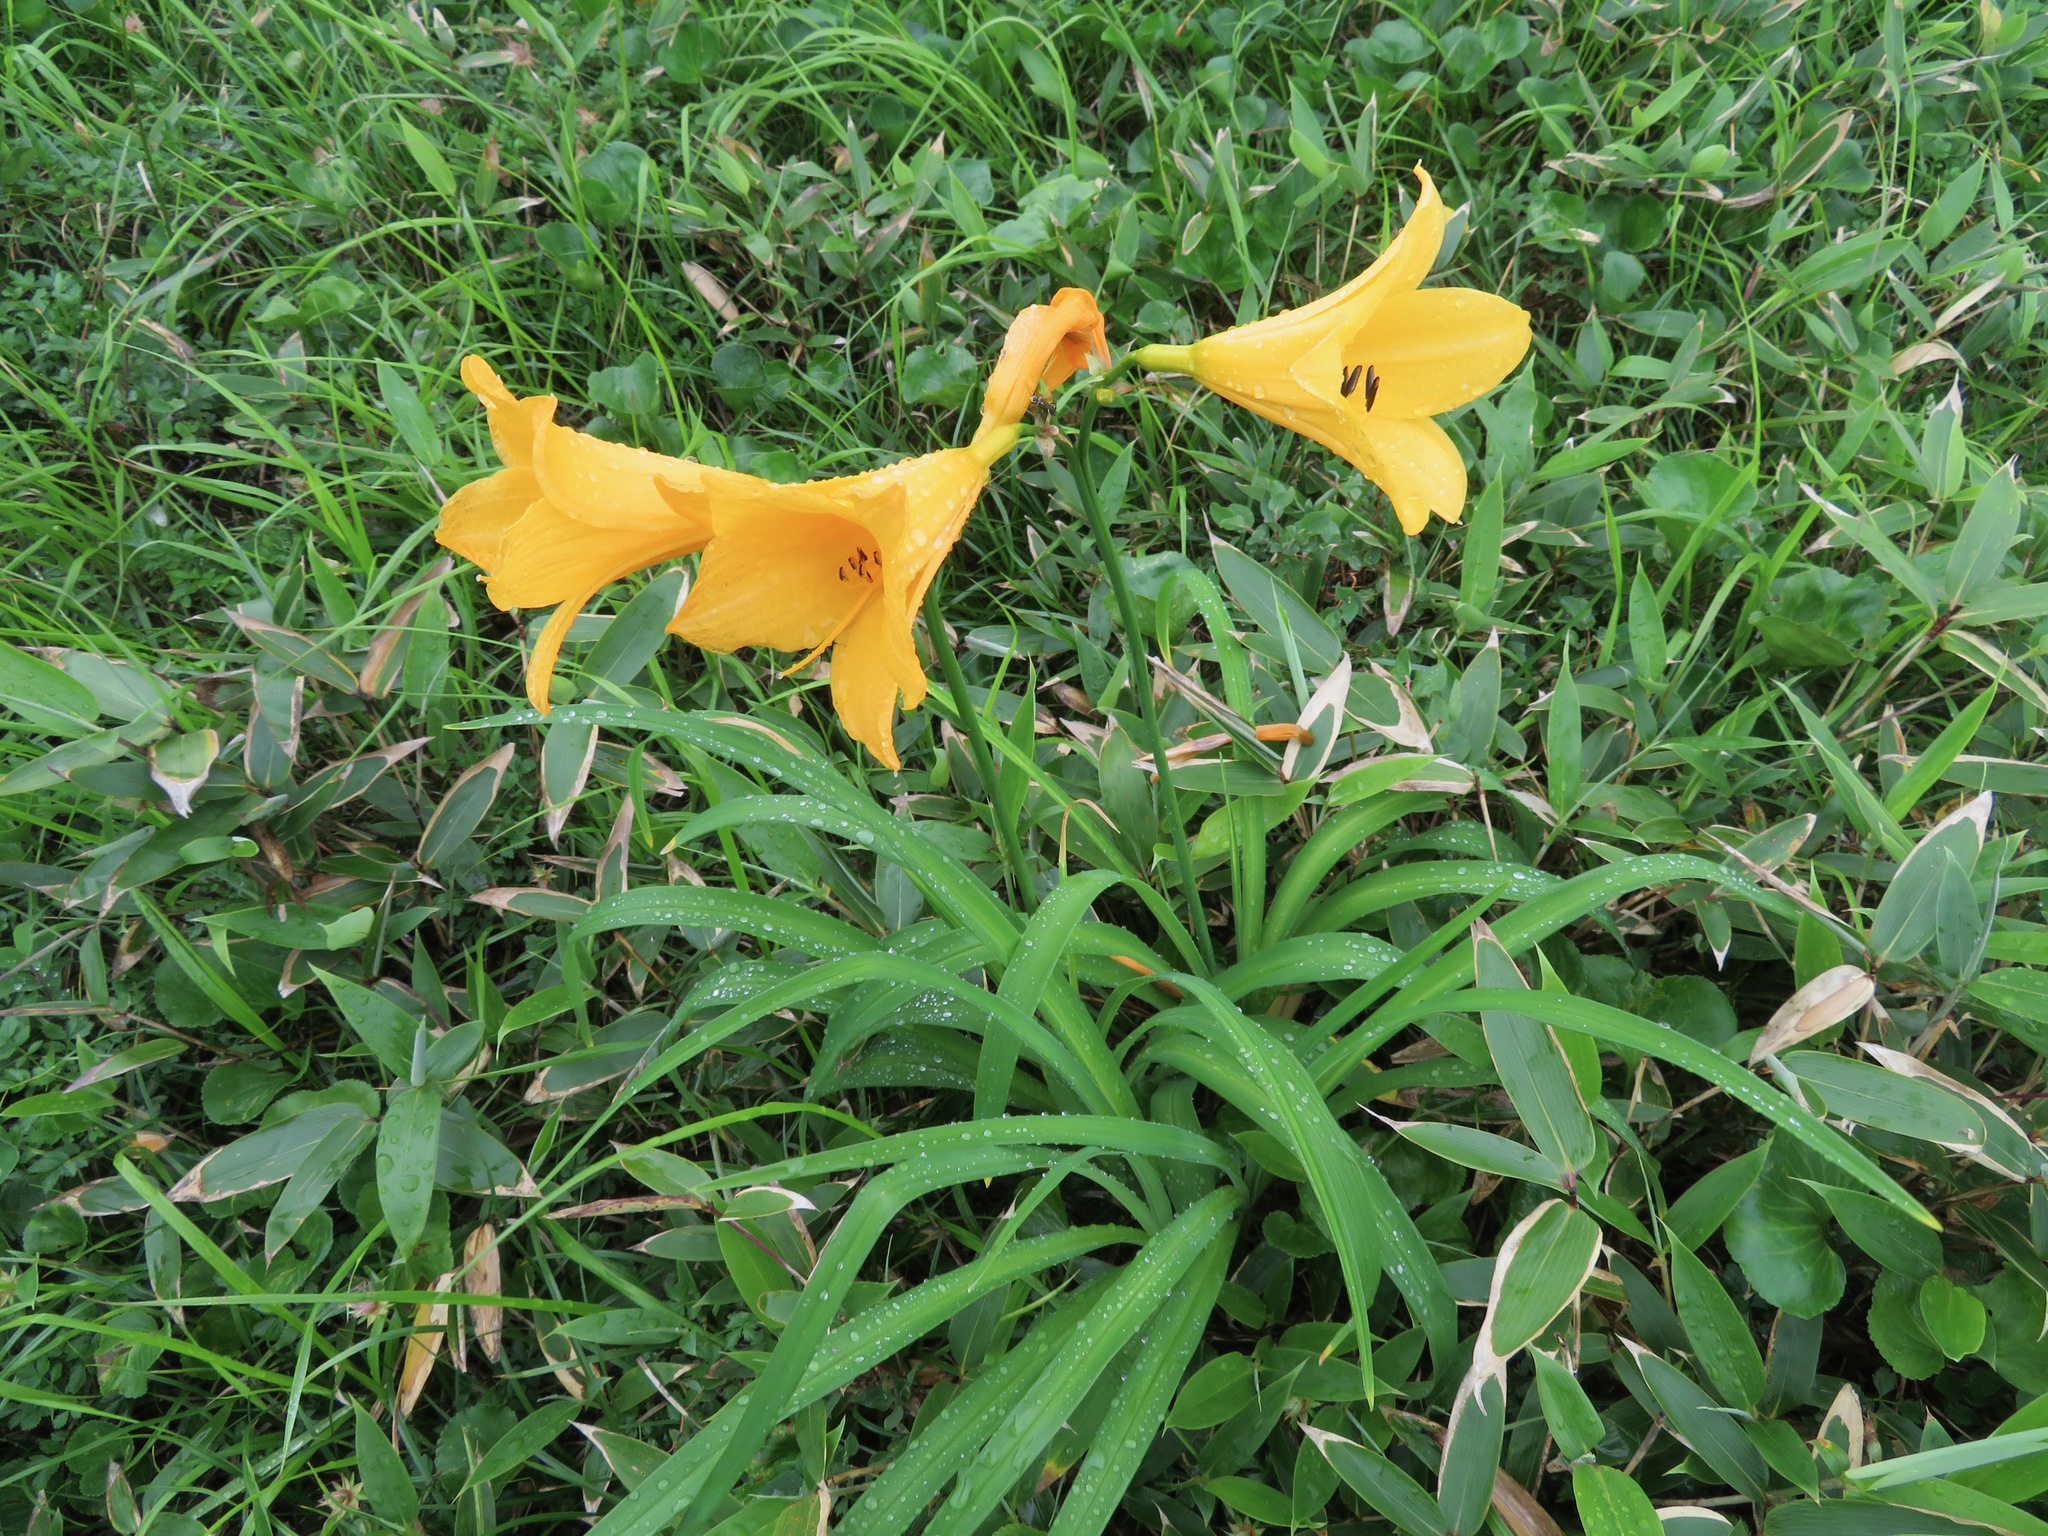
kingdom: Plantae
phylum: Tracheophyta
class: Liliopsida
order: Asparagales
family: Asphodelaceae
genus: Hemerocallis
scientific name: Hemerocallis middendorffii
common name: Amur day-lily
